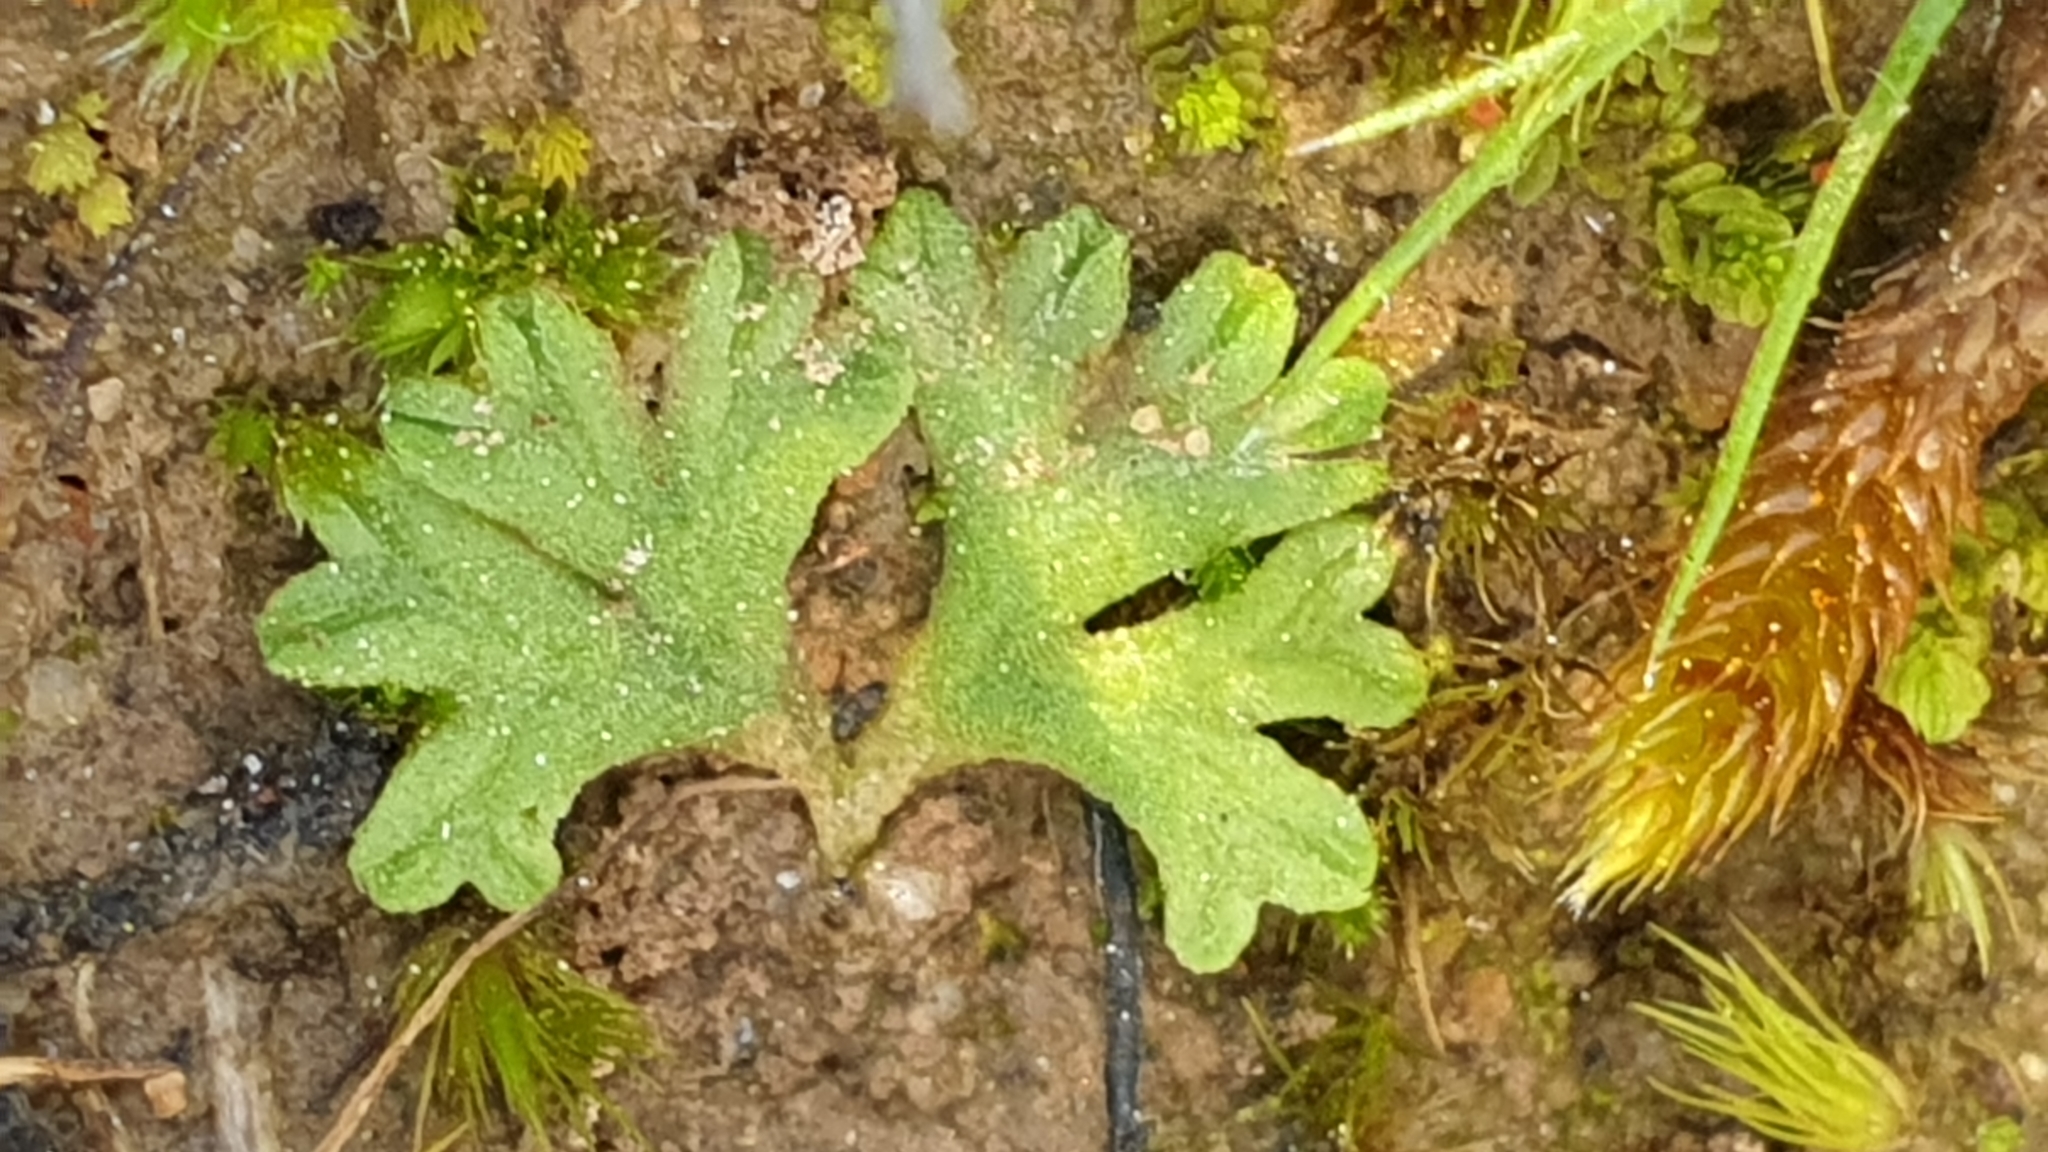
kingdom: Plantae
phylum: Marchantiophyta
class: Marchantiopsida
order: Marchantiales
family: Ricciaceae
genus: Riccia
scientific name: Riccia subbifurca
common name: Least crystalwort
